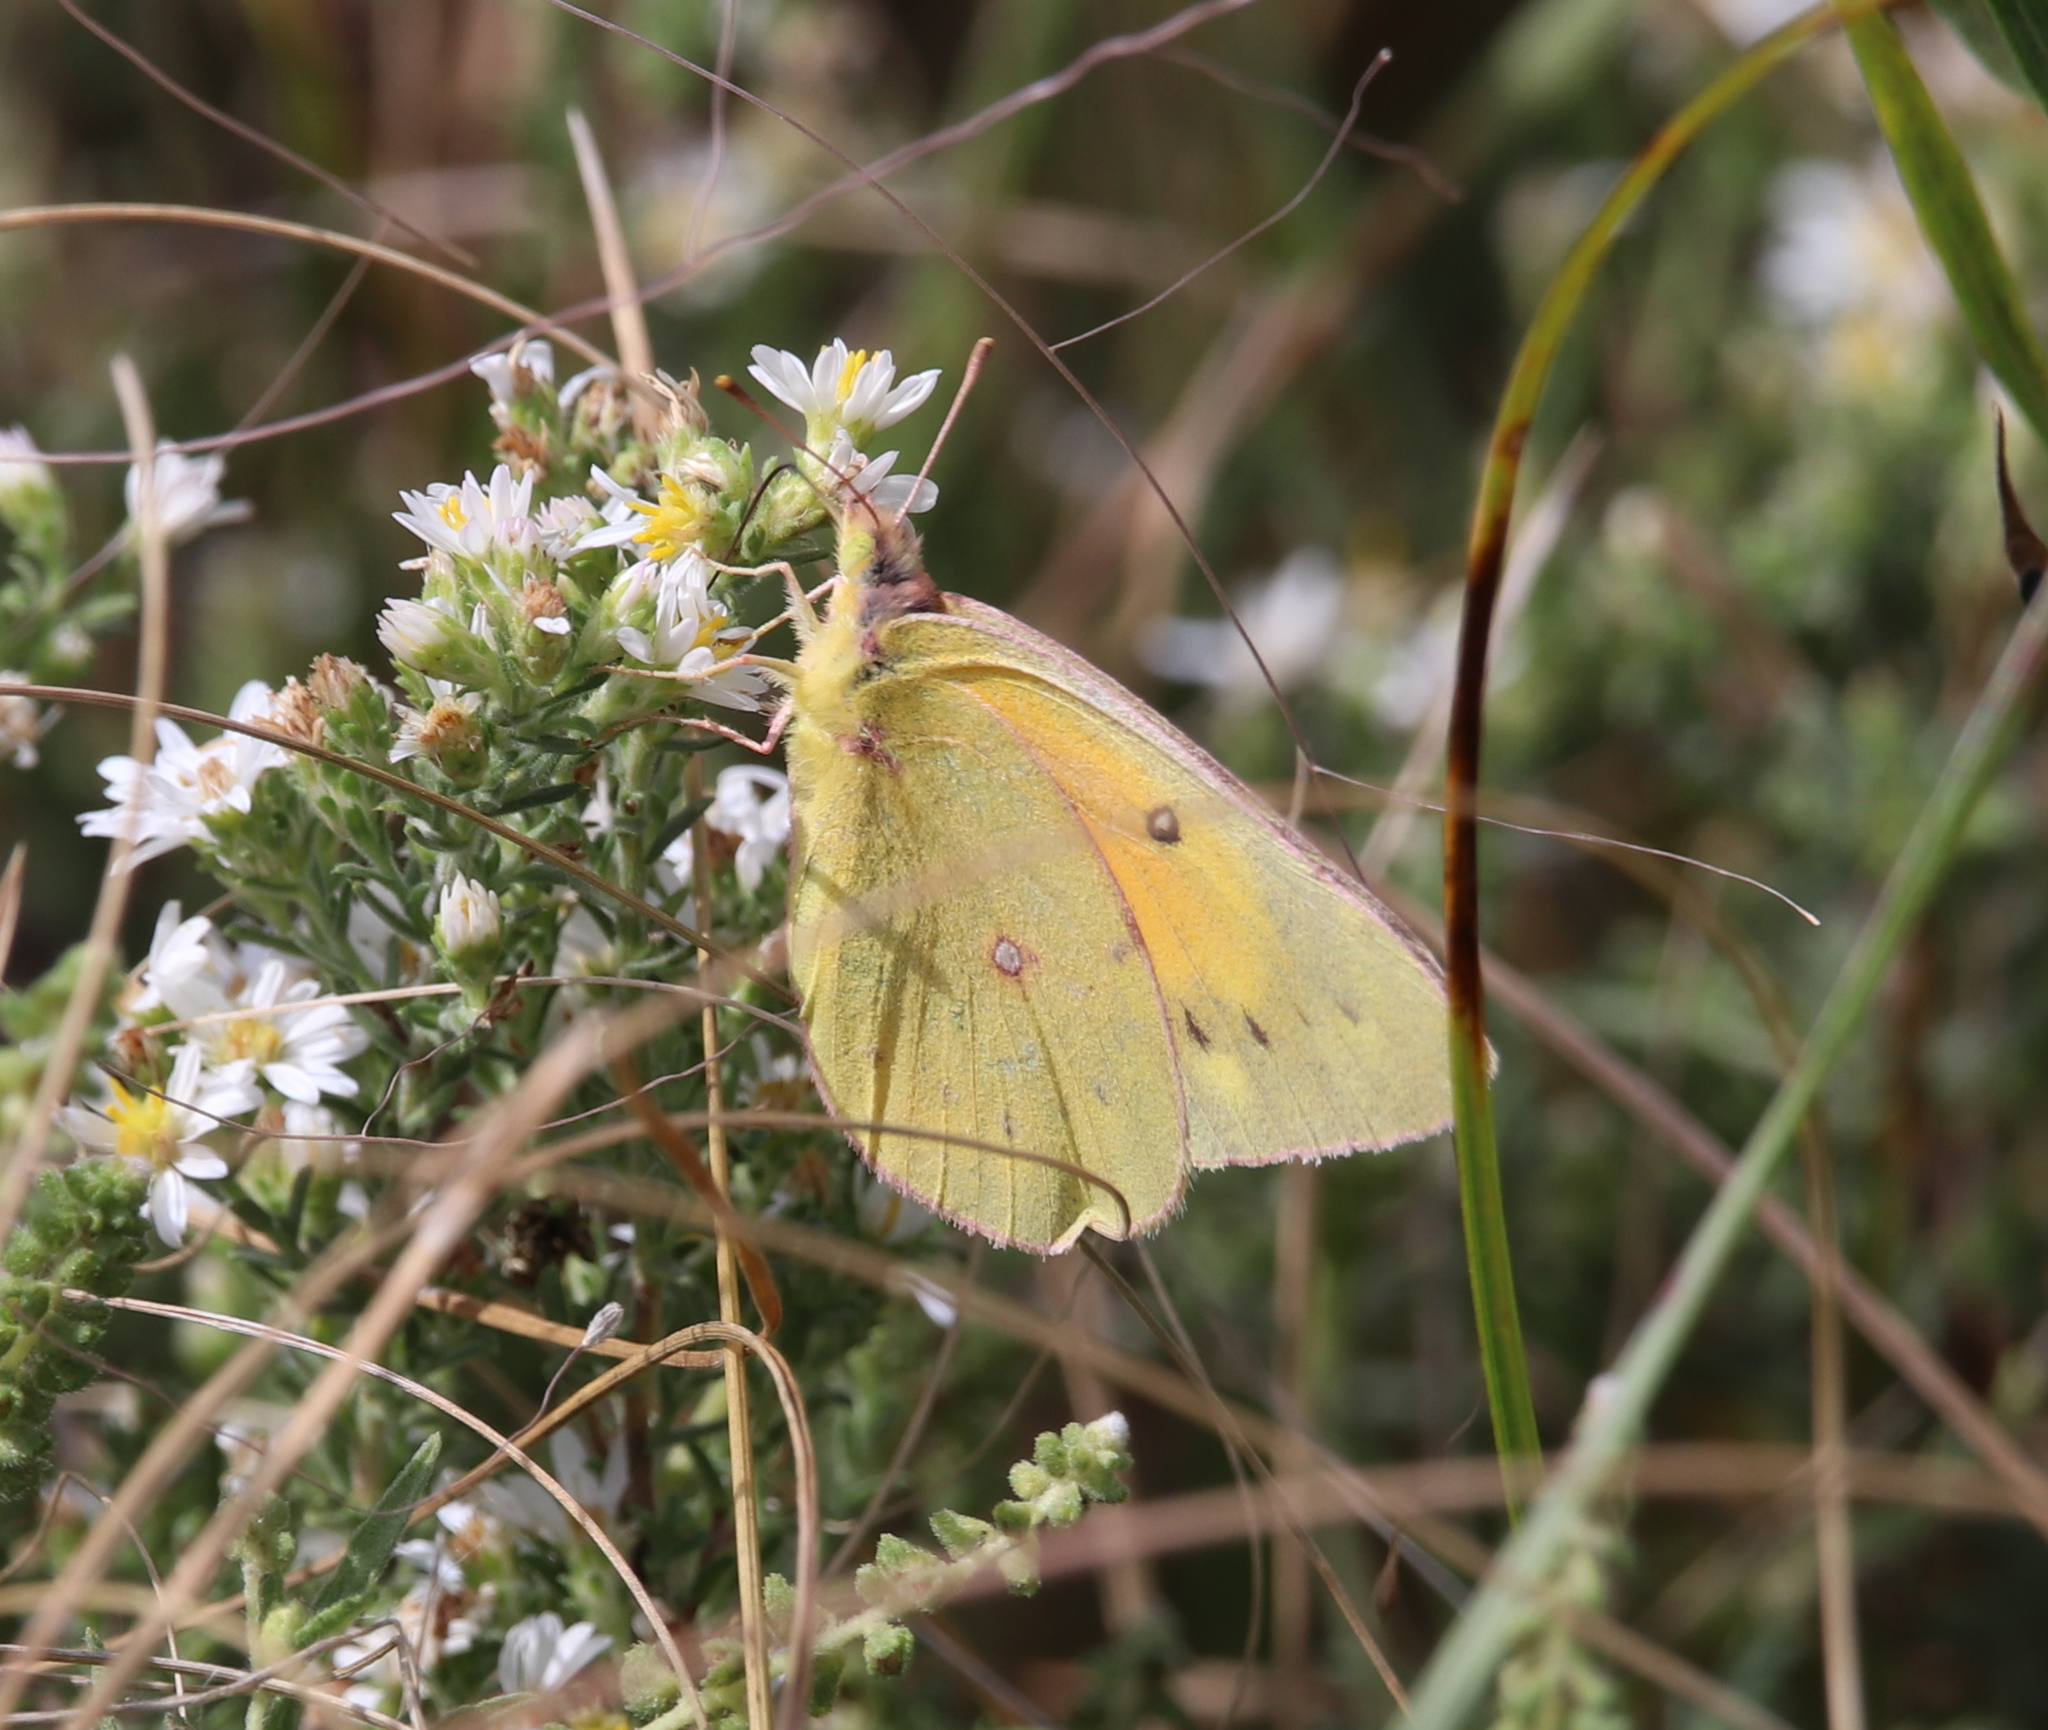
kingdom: Animalia
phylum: Arthropoda
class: Insecta
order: Lepidoptera
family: Pieridae
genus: Colias
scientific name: Colias eurytheme
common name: Alfalfa butterfly
